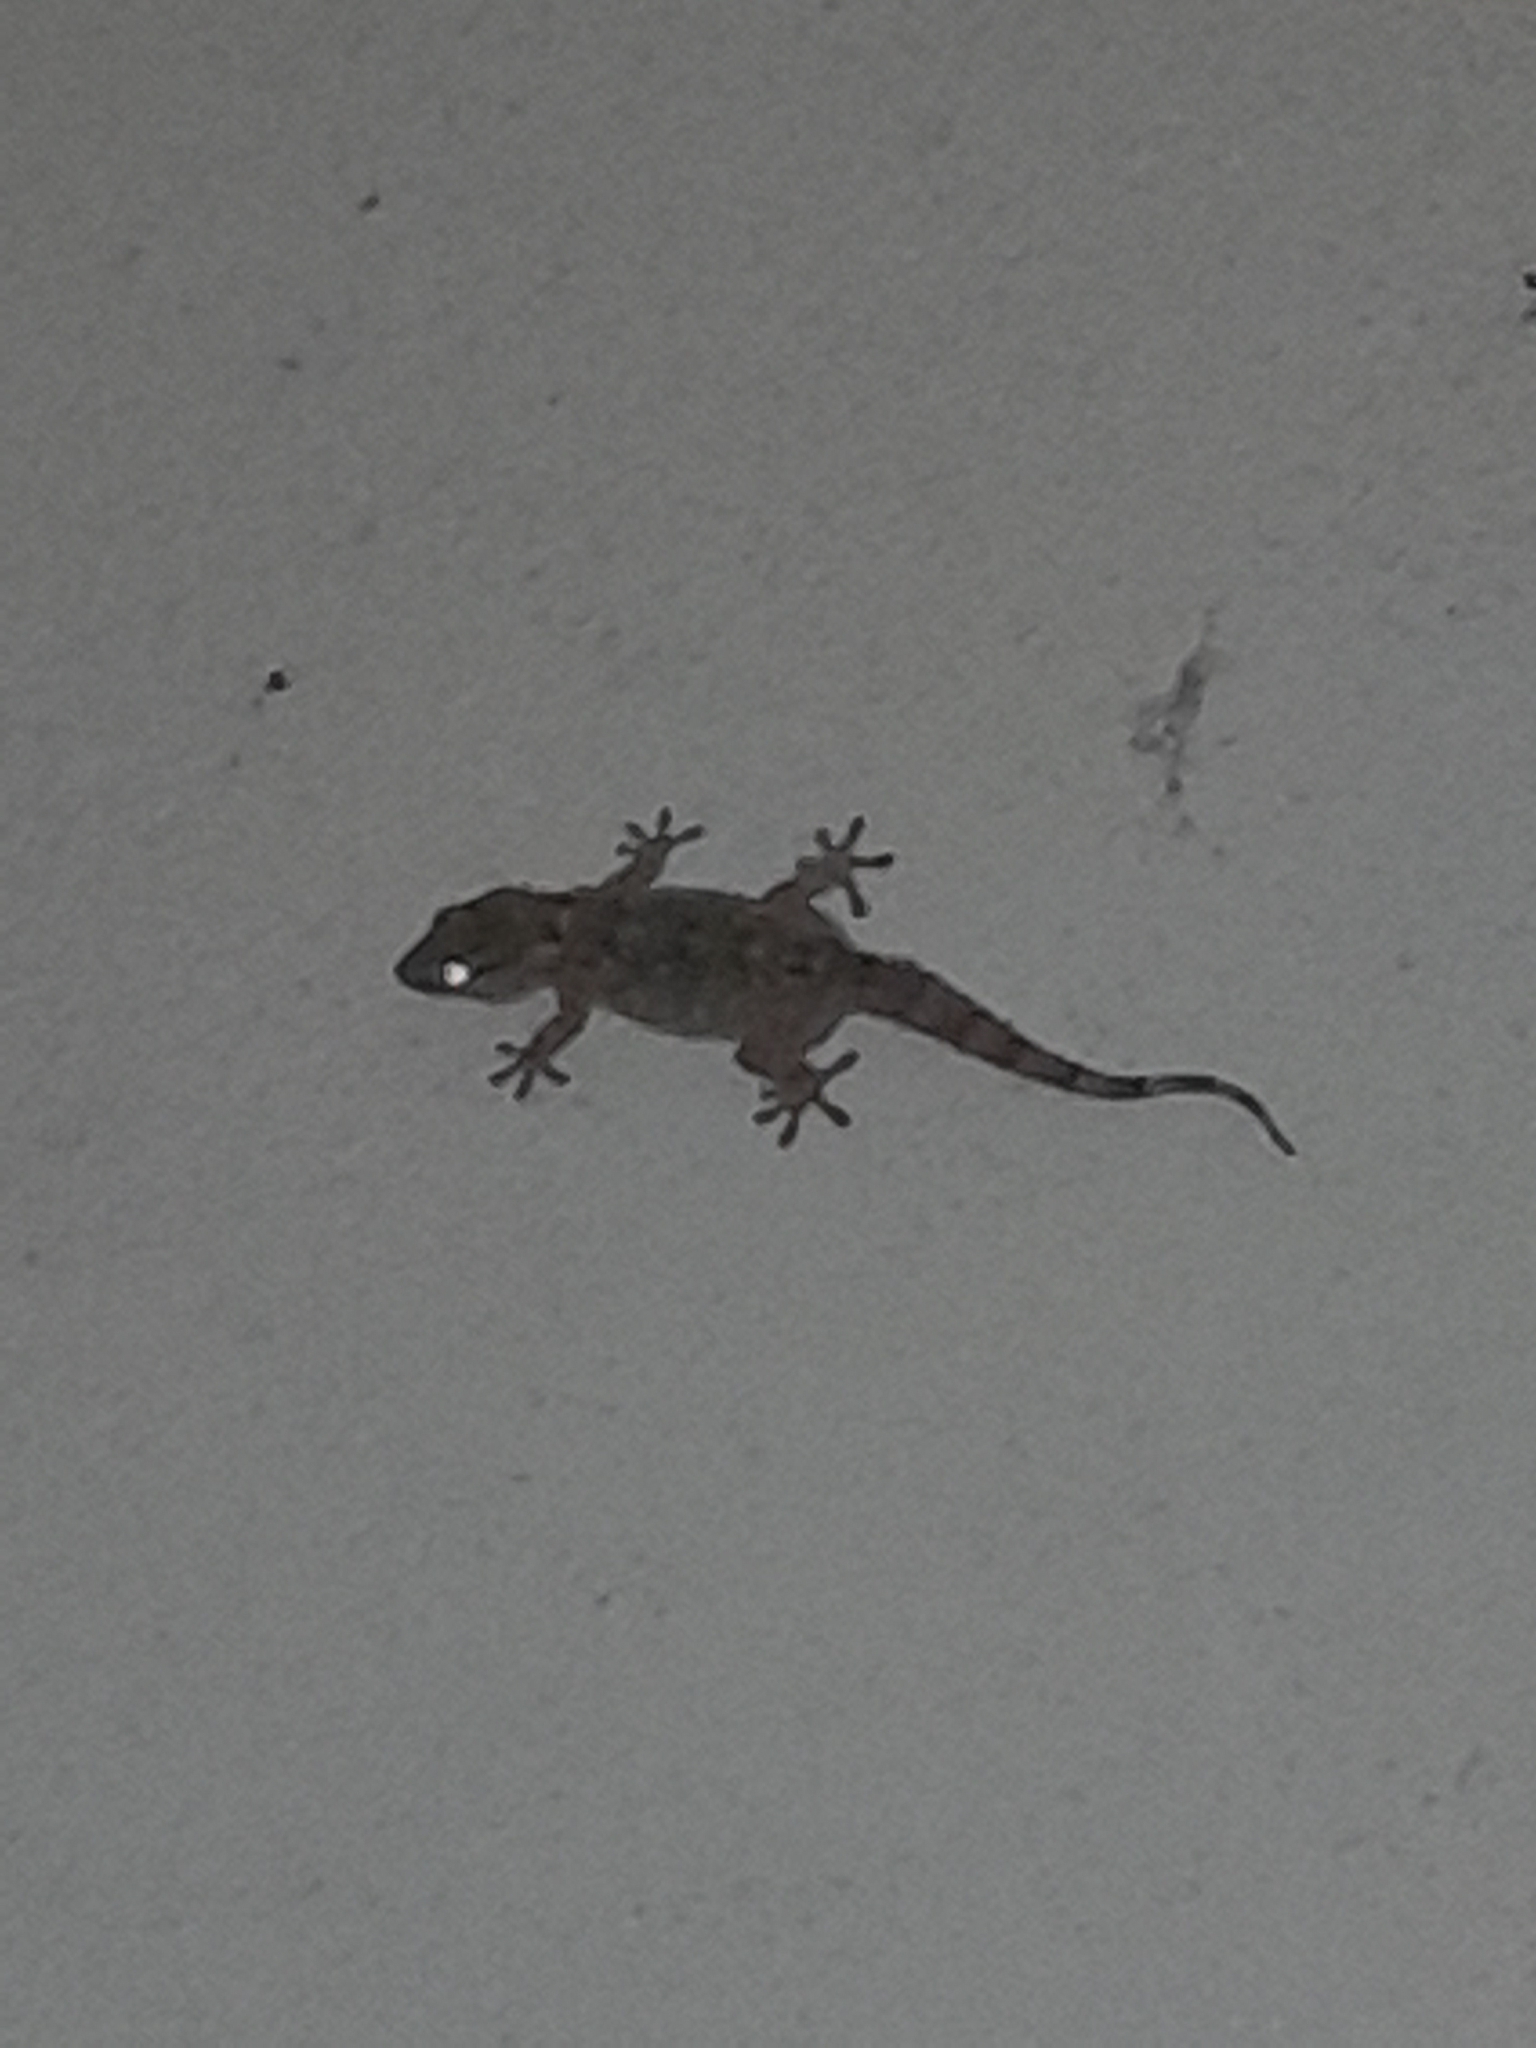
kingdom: Animalia
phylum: Chordata
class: Squamata
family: Phyllodactylidae
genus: Tarentola
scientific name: Tarentola mauritanica
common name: Moorish gecko
